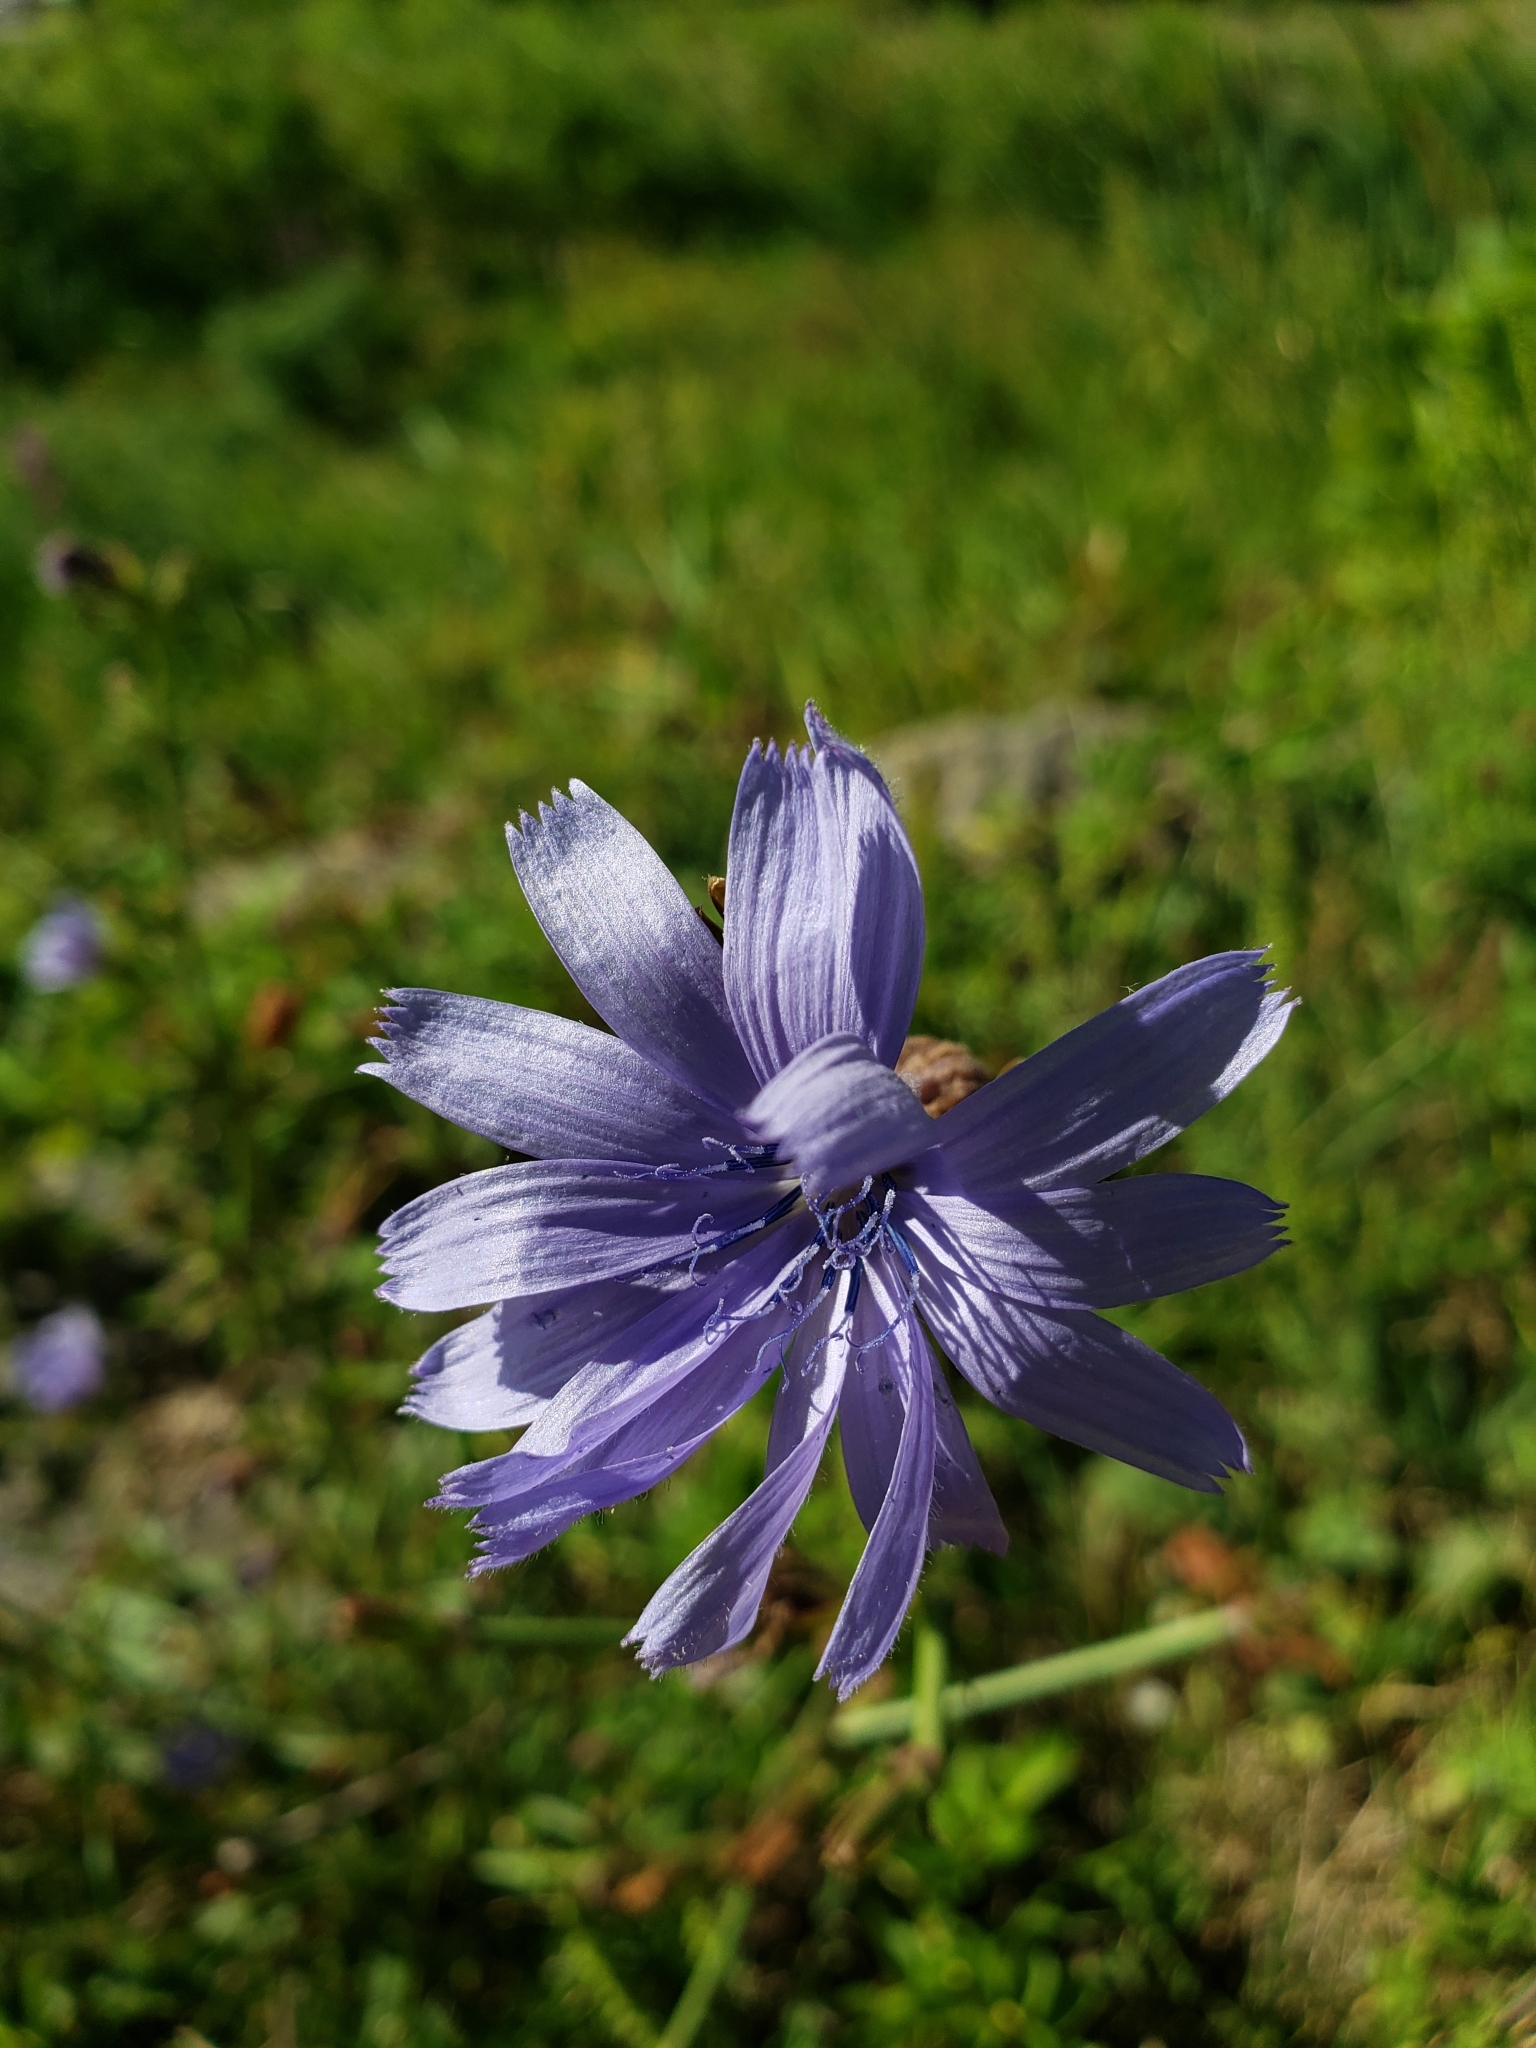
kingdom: Plantae
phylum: Tracheophyta
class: Magnoliopsida
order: Asterales
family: Asteraceae
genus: Cichorium
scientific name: Cichorium intybus
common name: Chicory
